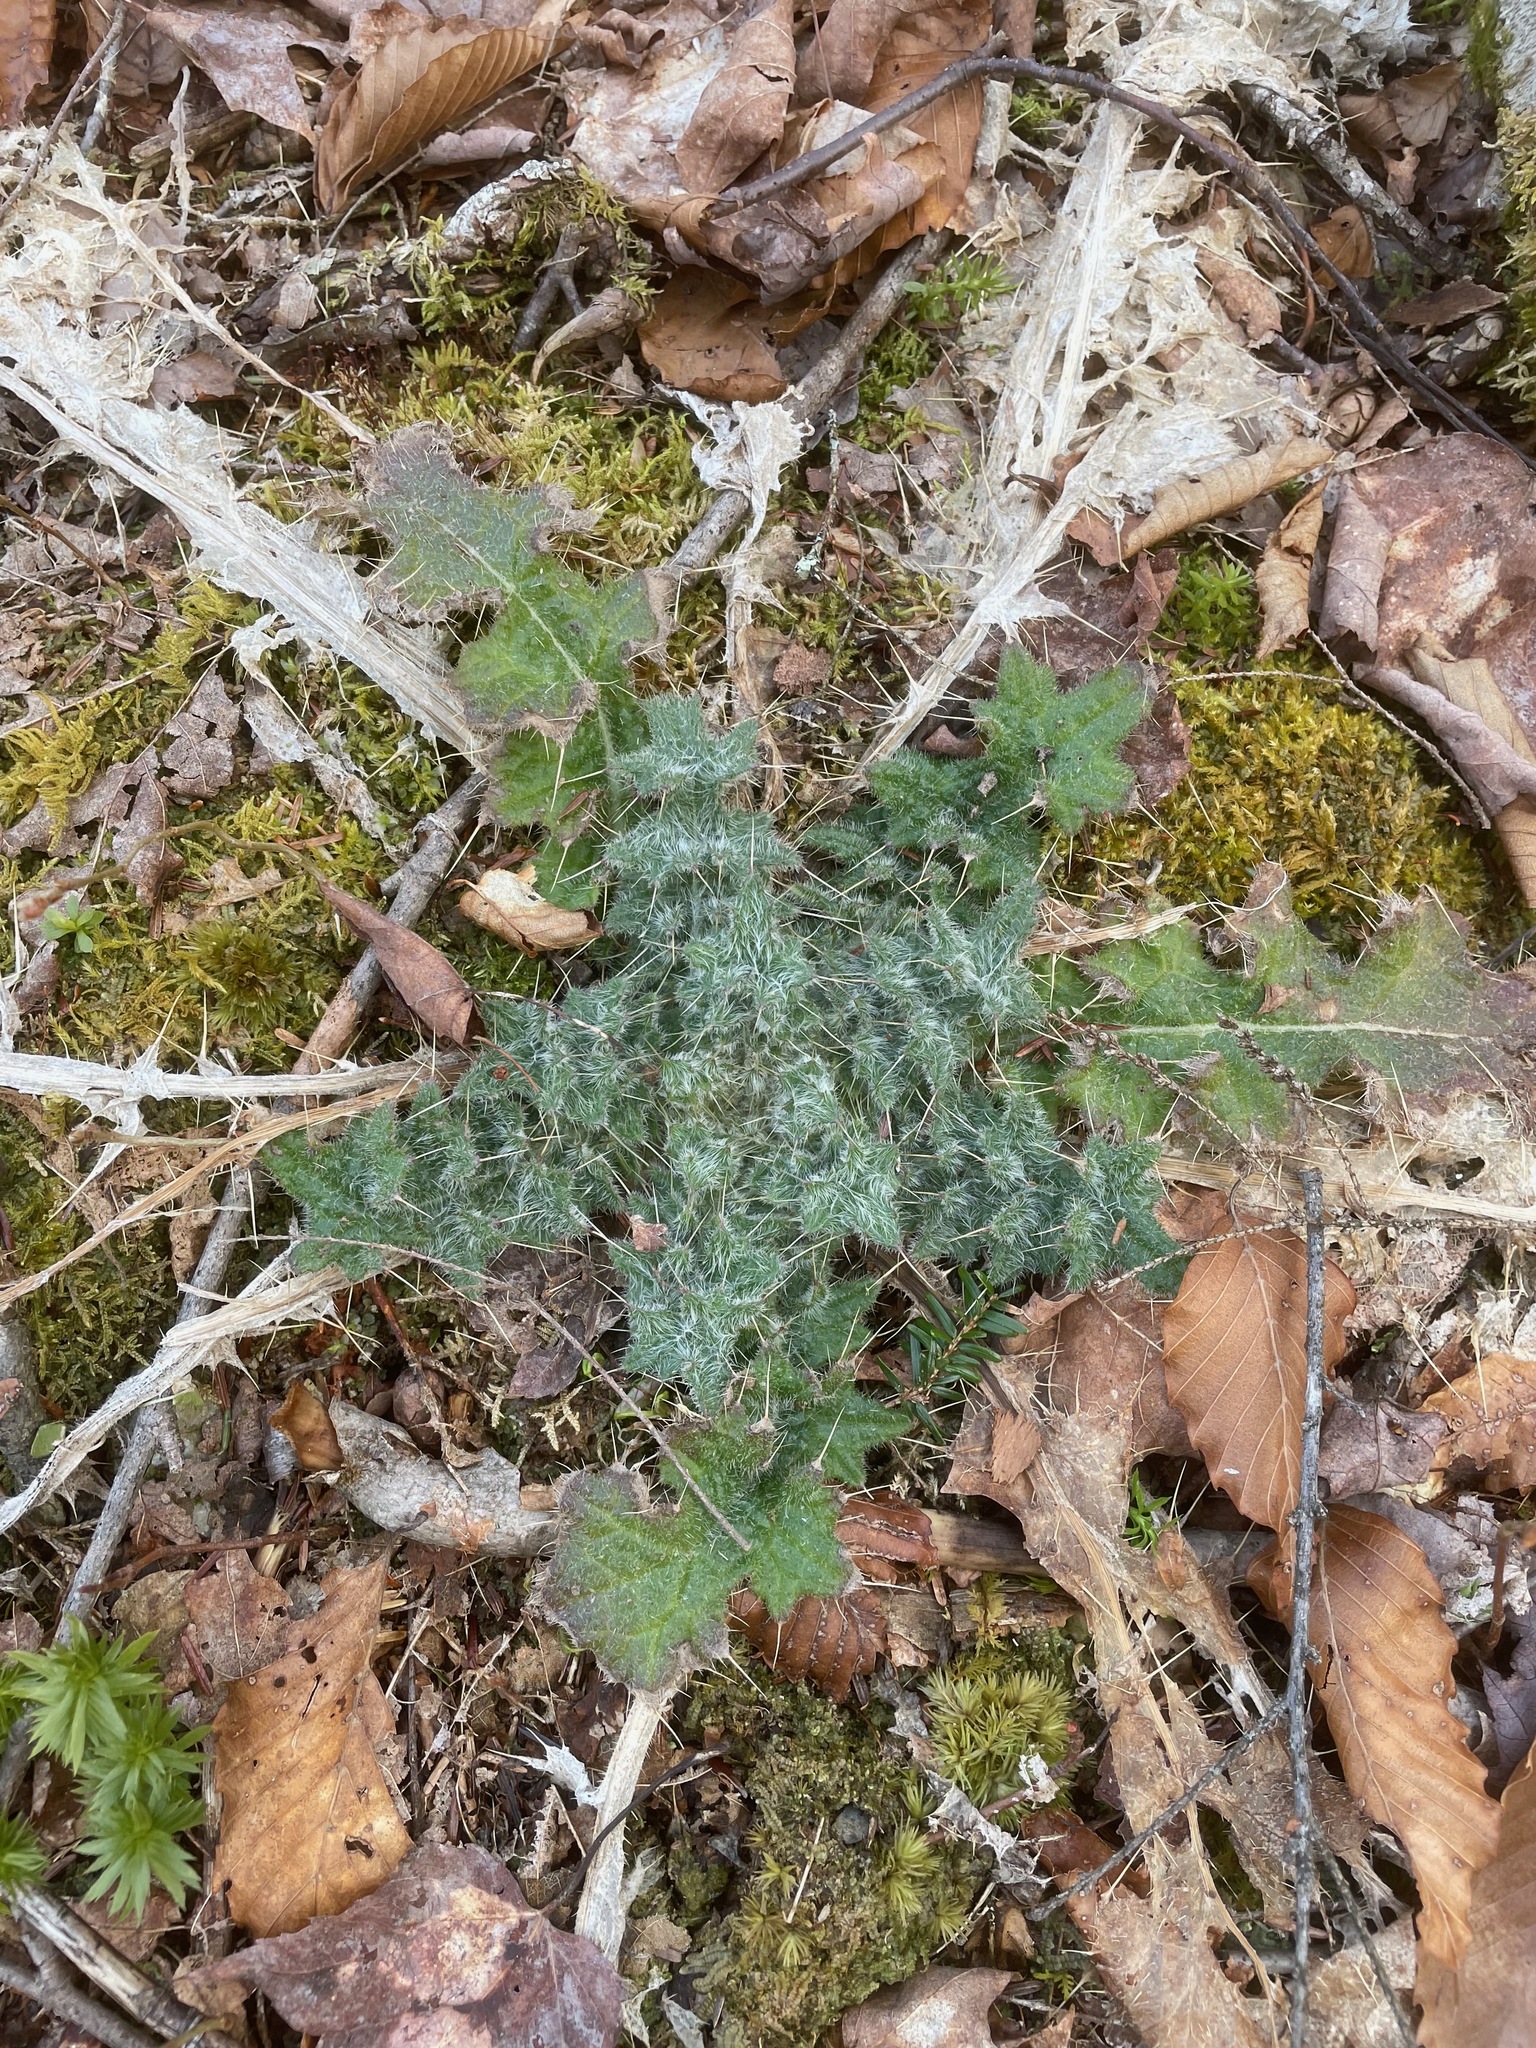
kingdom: Plantae
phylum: Tracheophyta
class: Magnoliopsida
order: Asterales
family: Asteraceae
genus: Cirsium
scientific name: Cirsium vulgare
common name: Bull thistle
